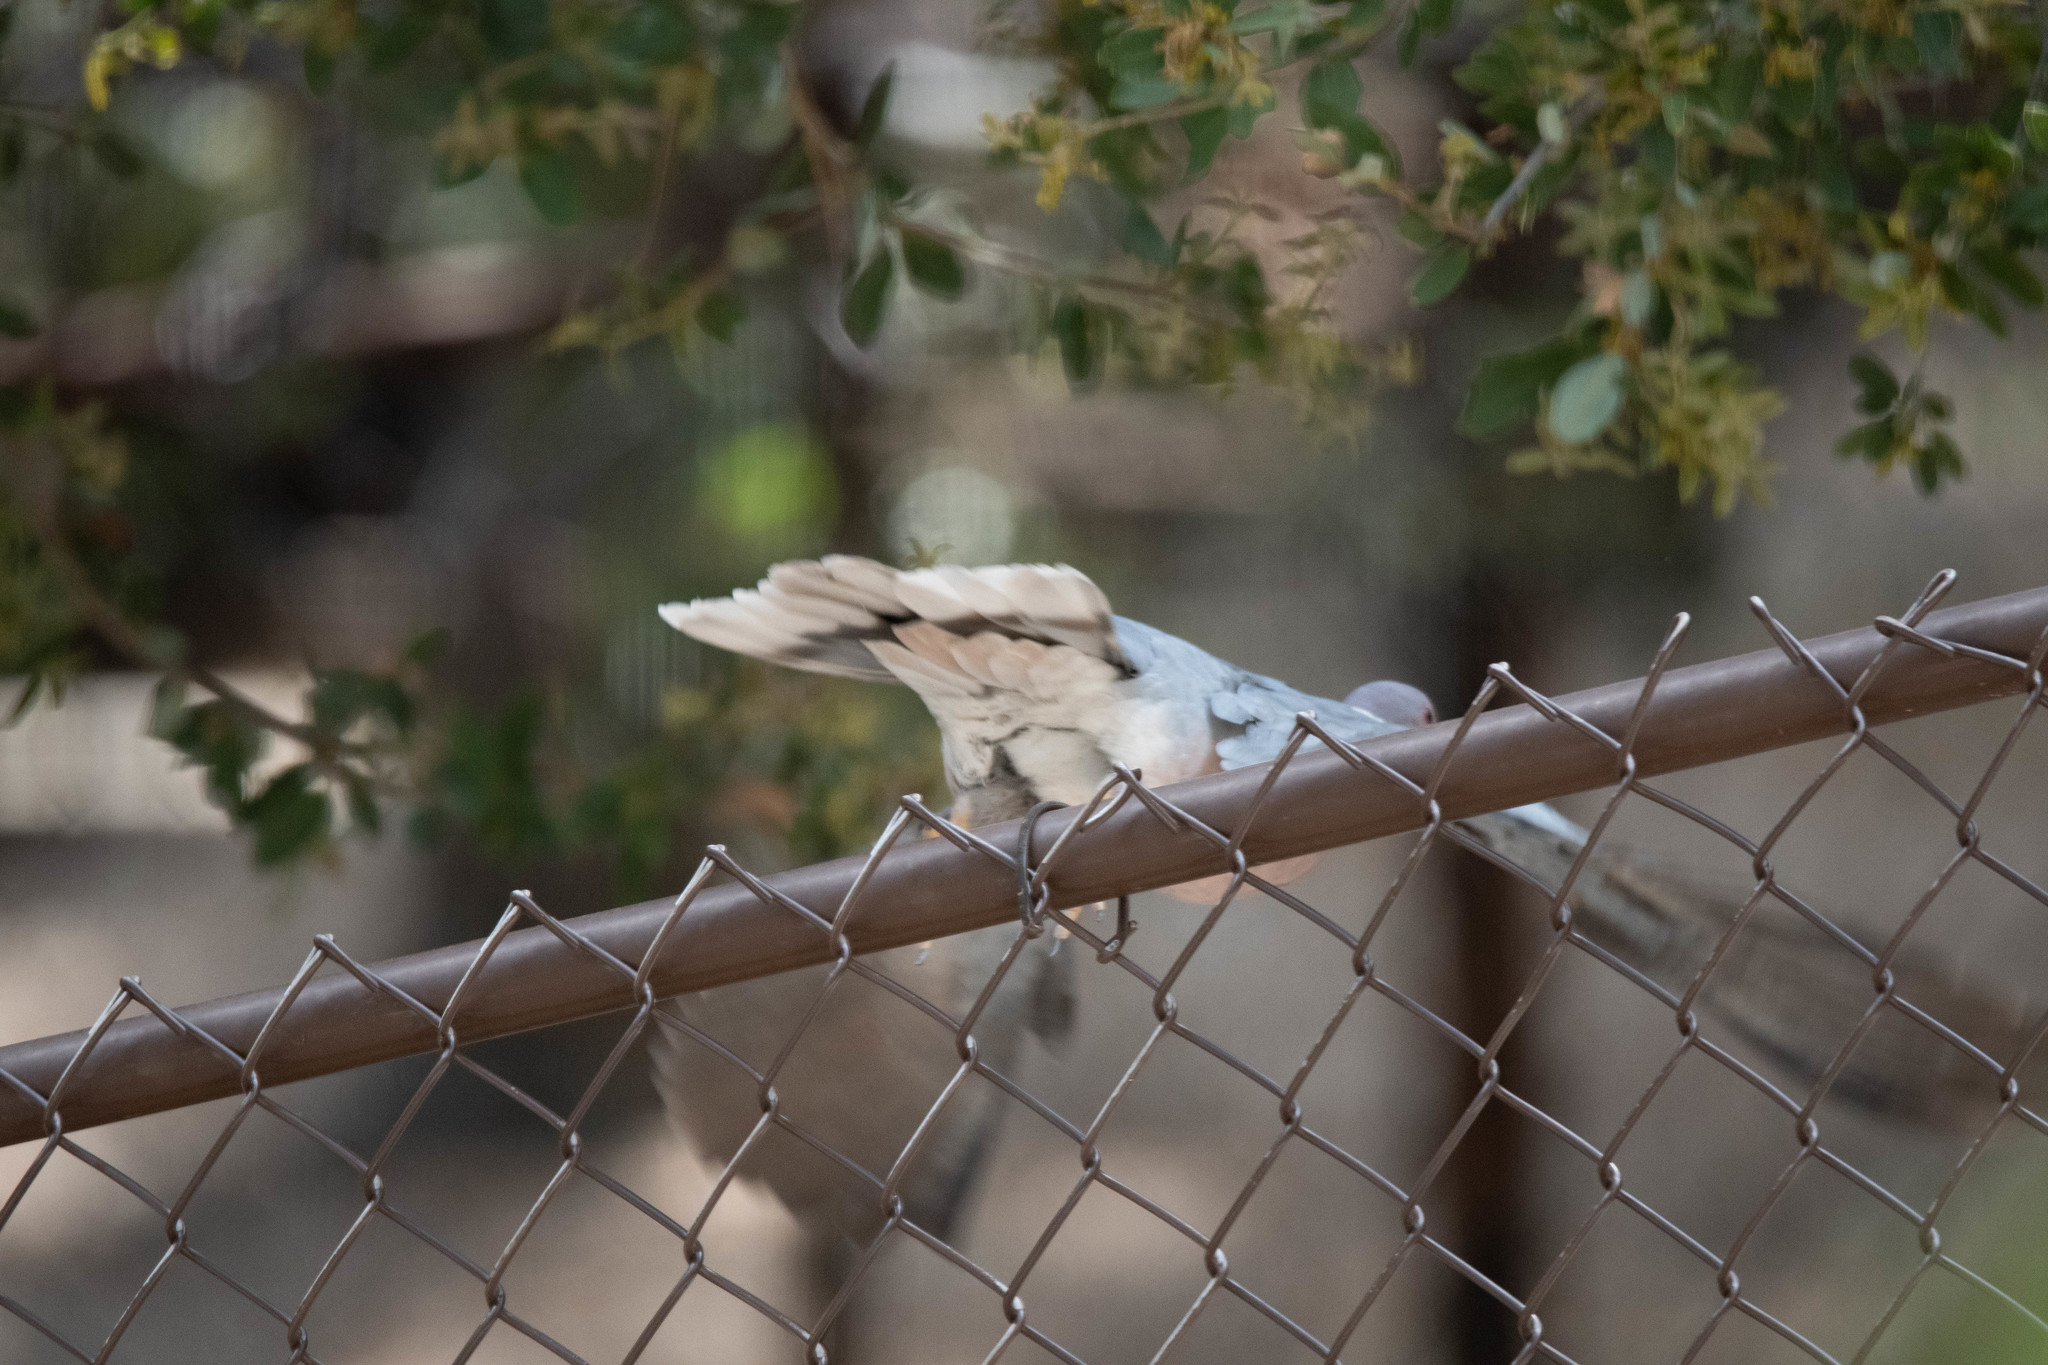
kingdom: Animalia
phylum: Chordata
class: Aves
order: Columbiformes
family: Columbidae
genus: Patagioenas
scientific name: Patagioenas fasciata
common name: Band-tailed pigeon
